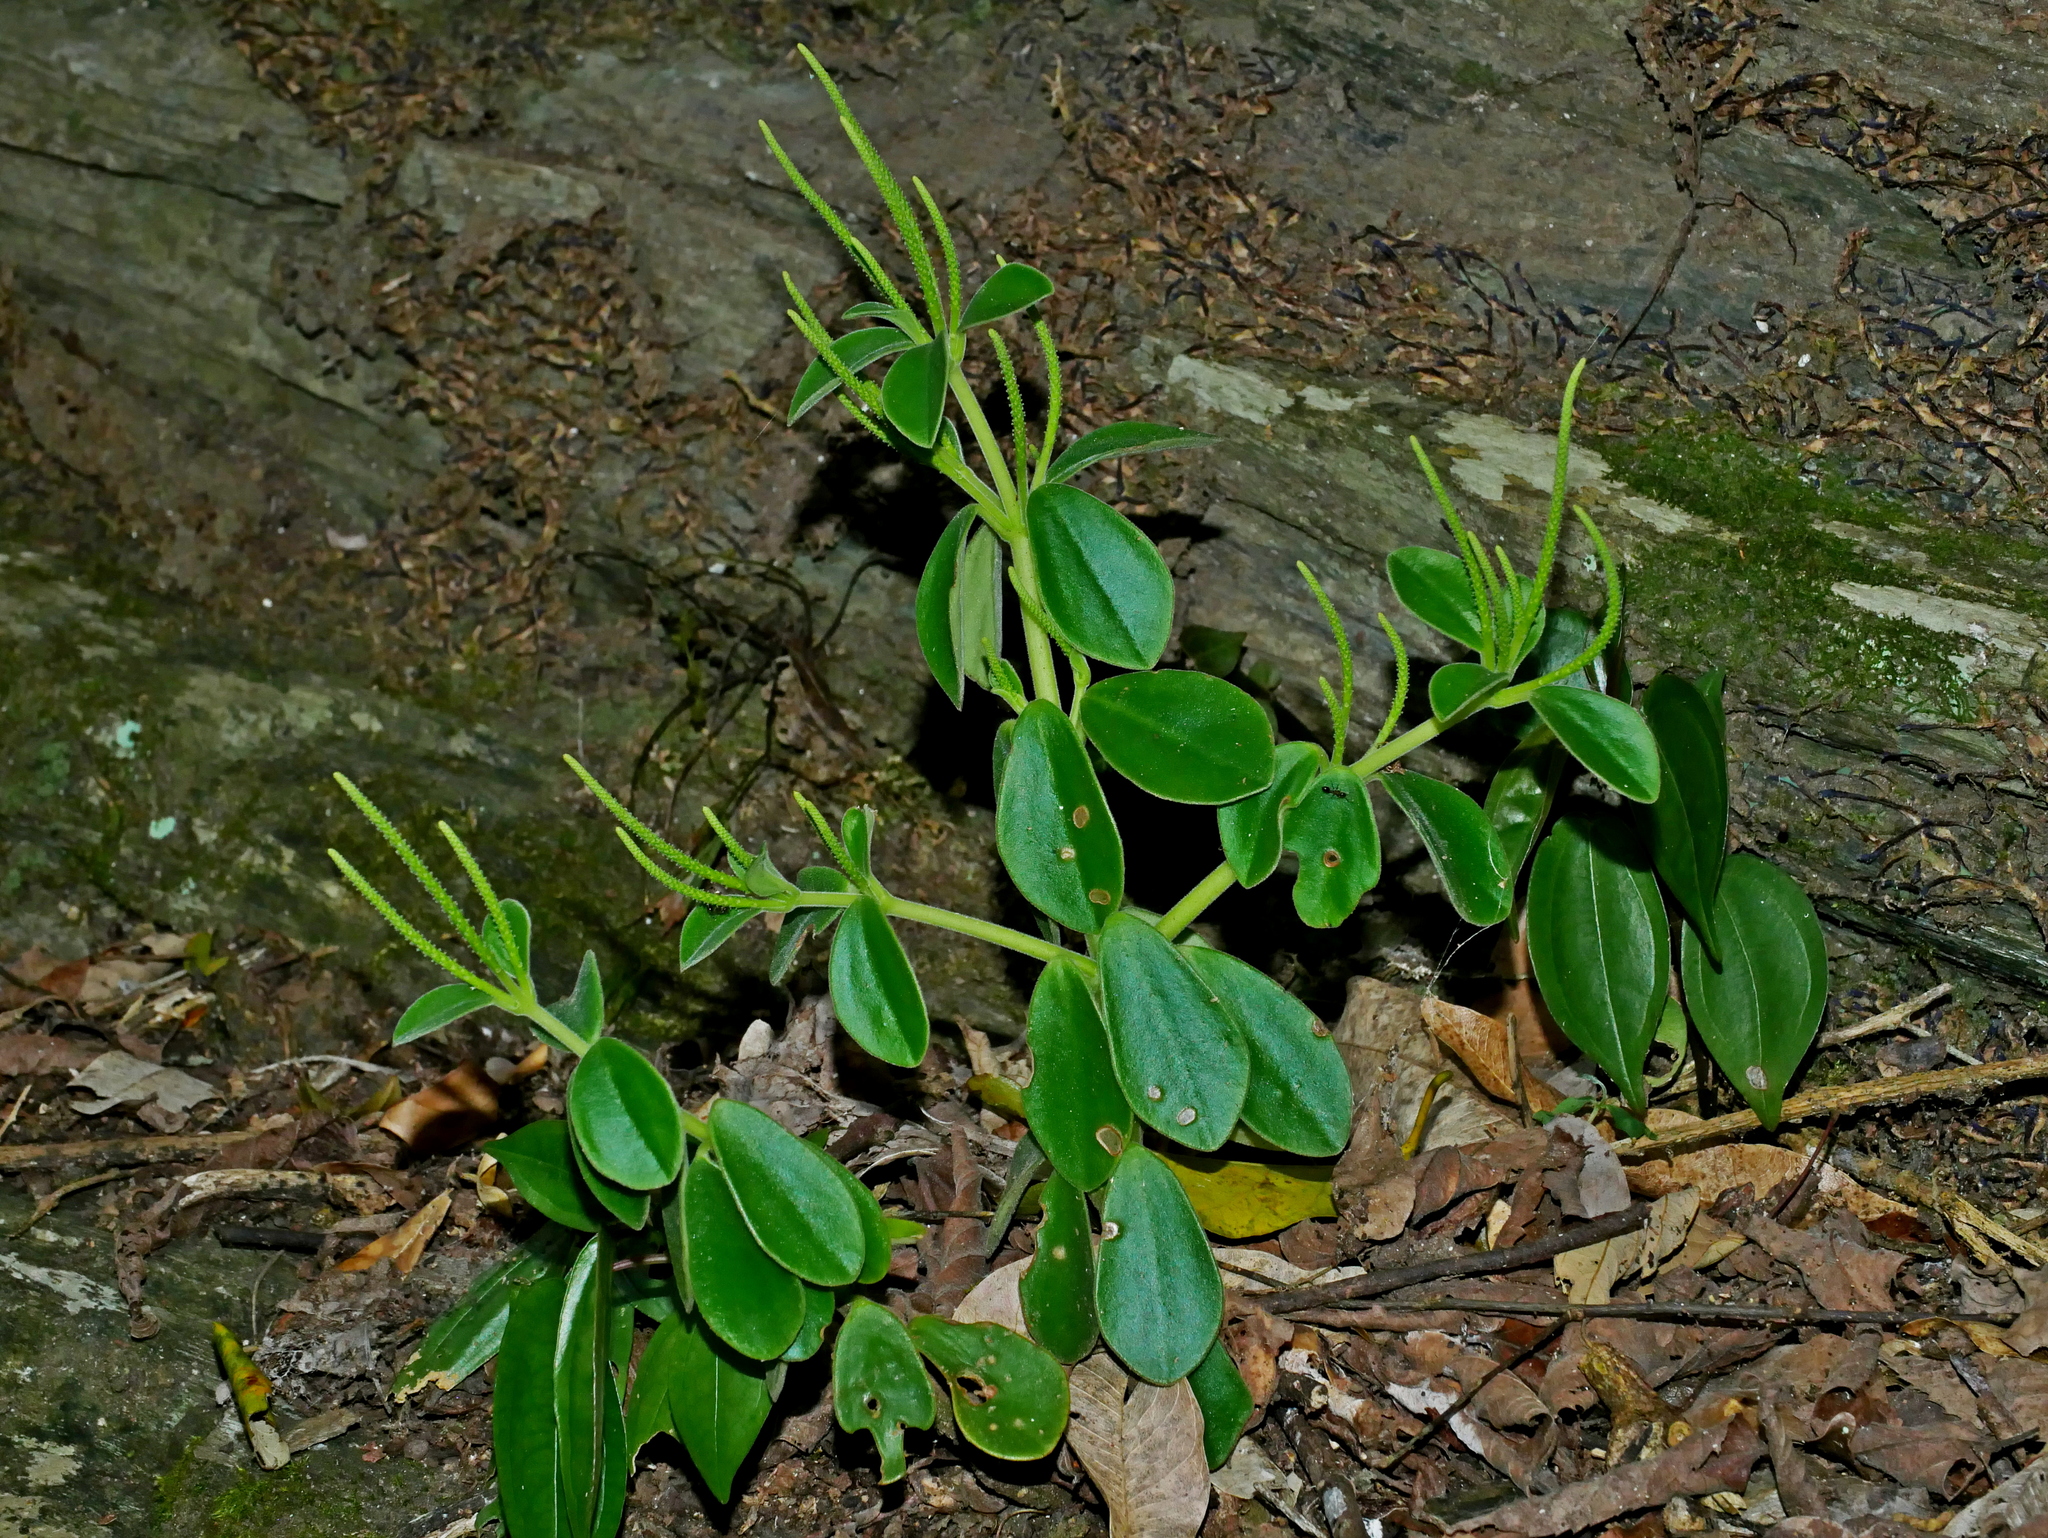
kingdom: Plantae
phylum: Tracheophyta
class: Magnoliopsida
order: Piperales
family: Piperaceae
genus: Peperomia
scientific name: Peperomia japonica
